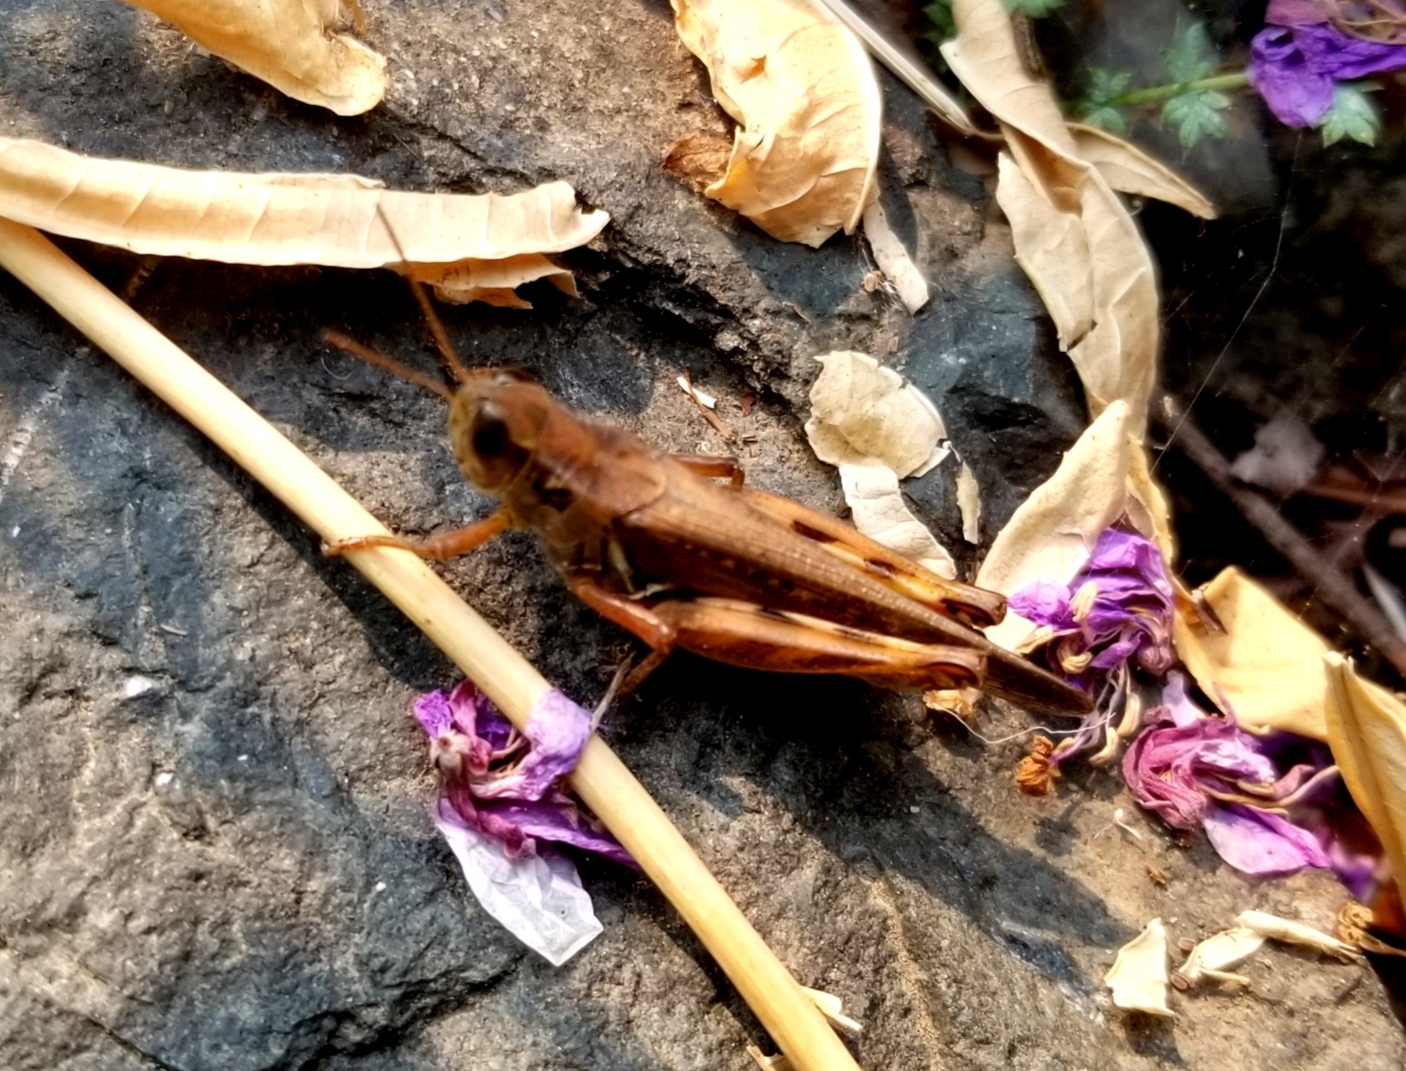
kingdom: Animalia
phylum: Arthropoda
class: Insecta
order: Orthoptera
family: Acrididae
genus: Melanoplus
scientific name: Melanoplus sanguinipes
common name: Migratory grasshopper
